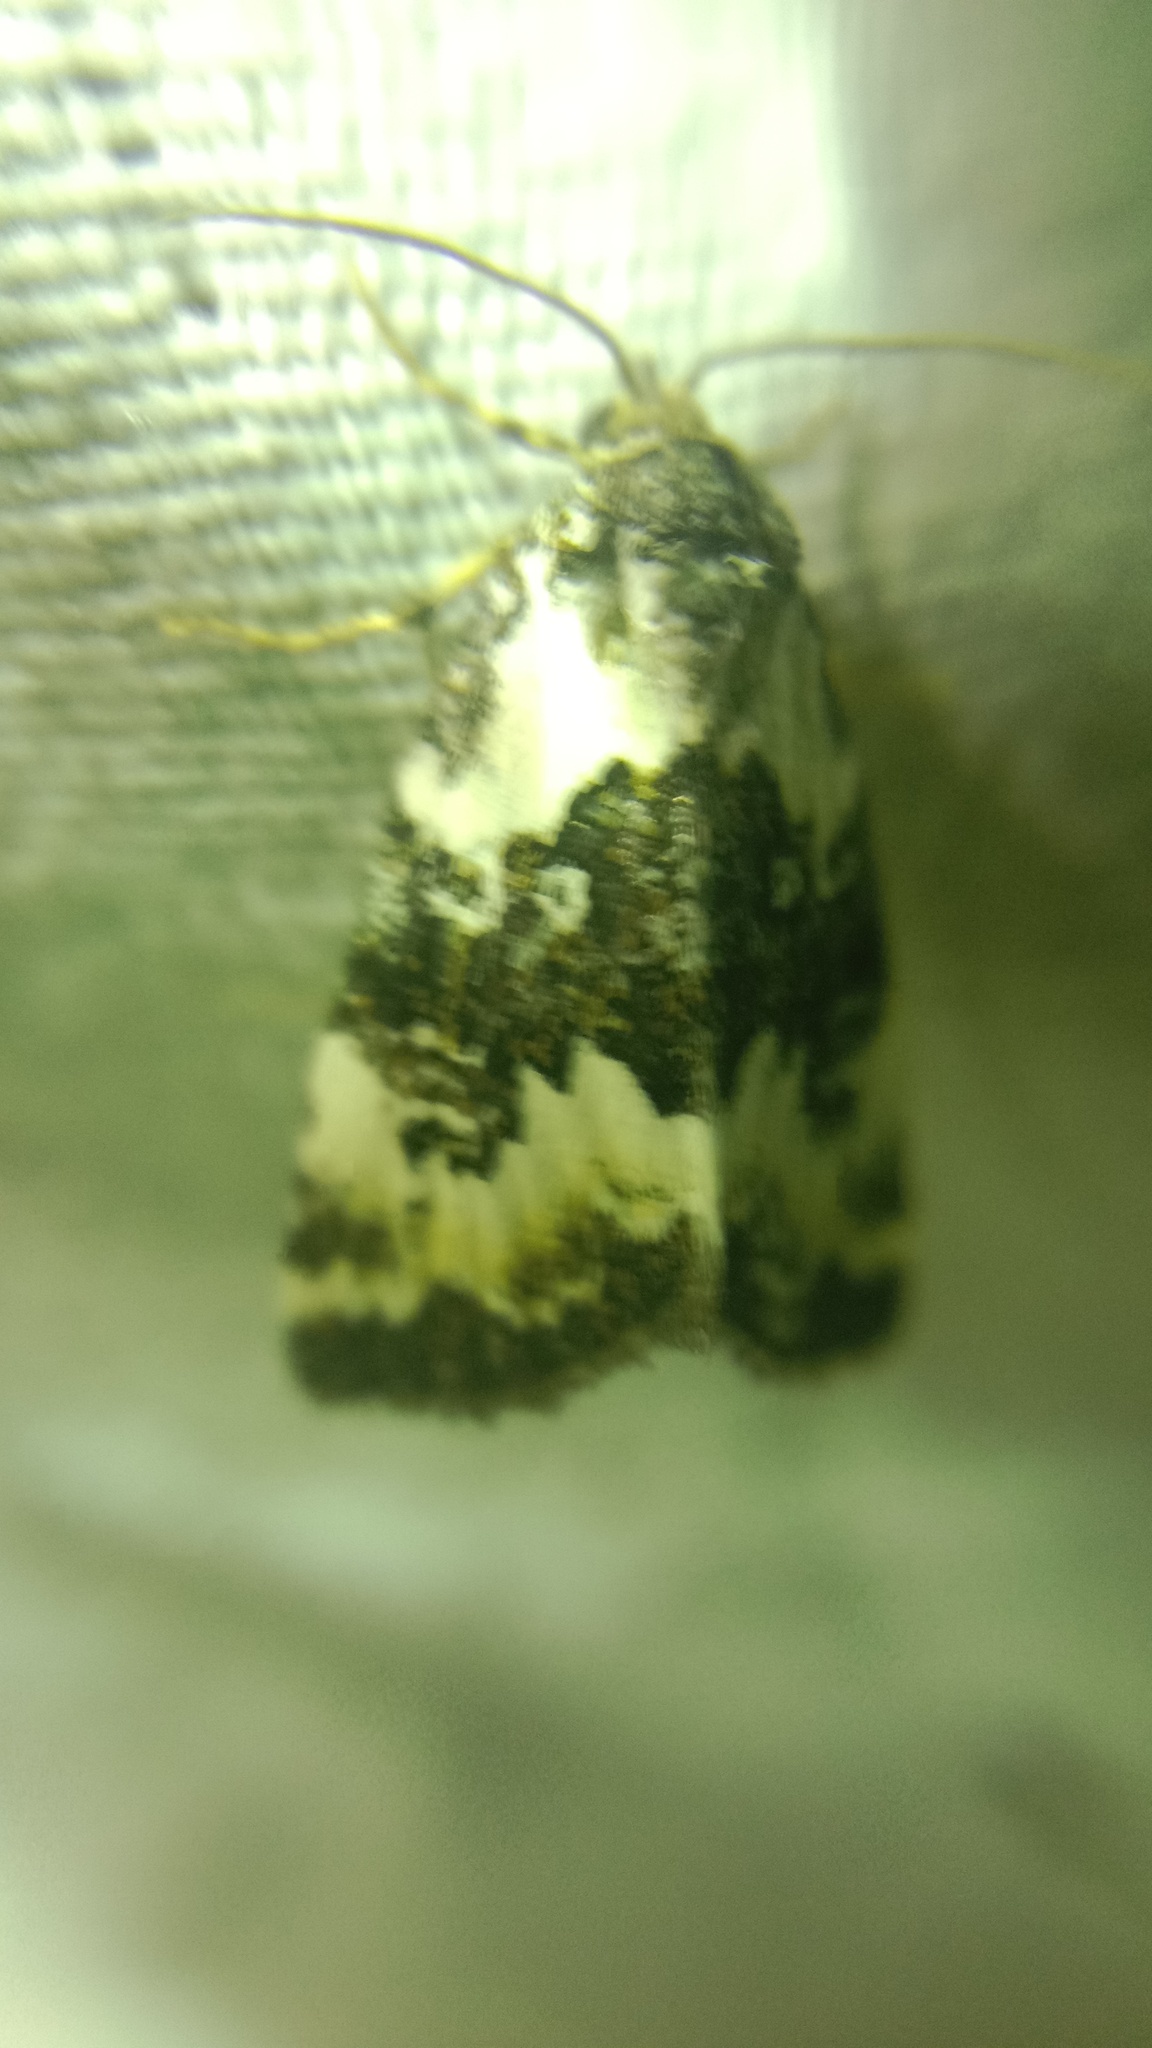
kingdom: Animalia
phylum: Arthropoda
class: Insecta
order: Lepidoptera
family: Noctuidae
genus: Deltote
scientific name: Deltote deceptoria
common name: Pretty marbled
